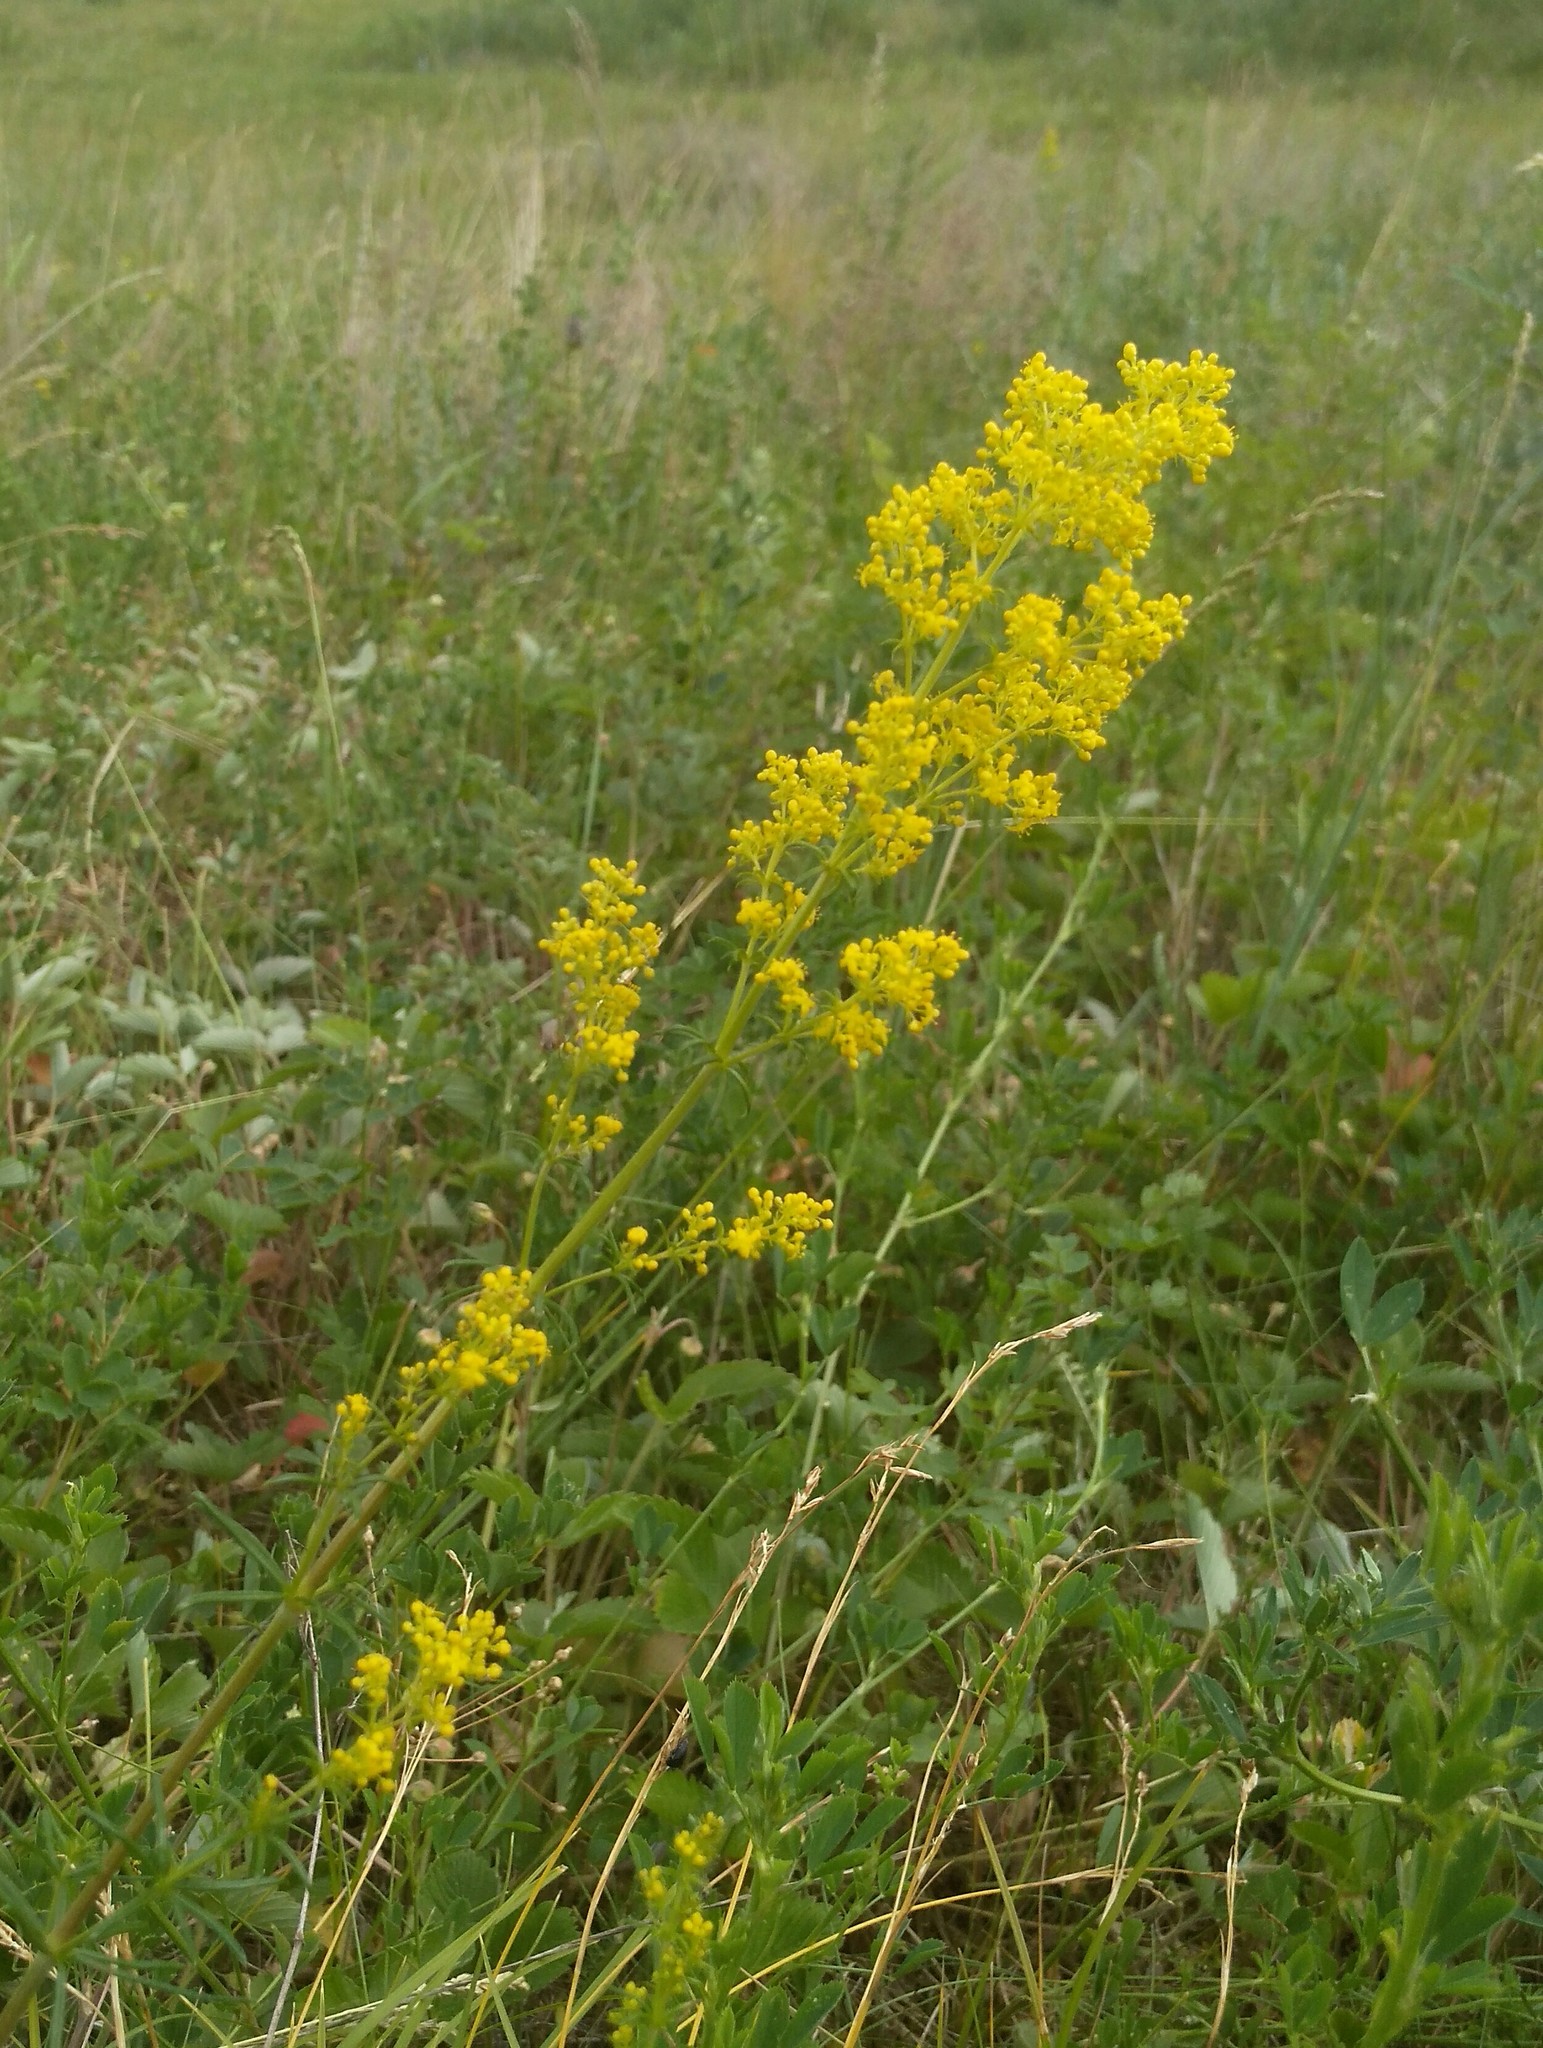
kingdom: Plantae
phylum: Tracheophyta
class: Magnoliopsida
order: Gentianales
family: Rubiaceae
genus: Galium
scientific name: Galium verum
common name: Lady's bedstraw
